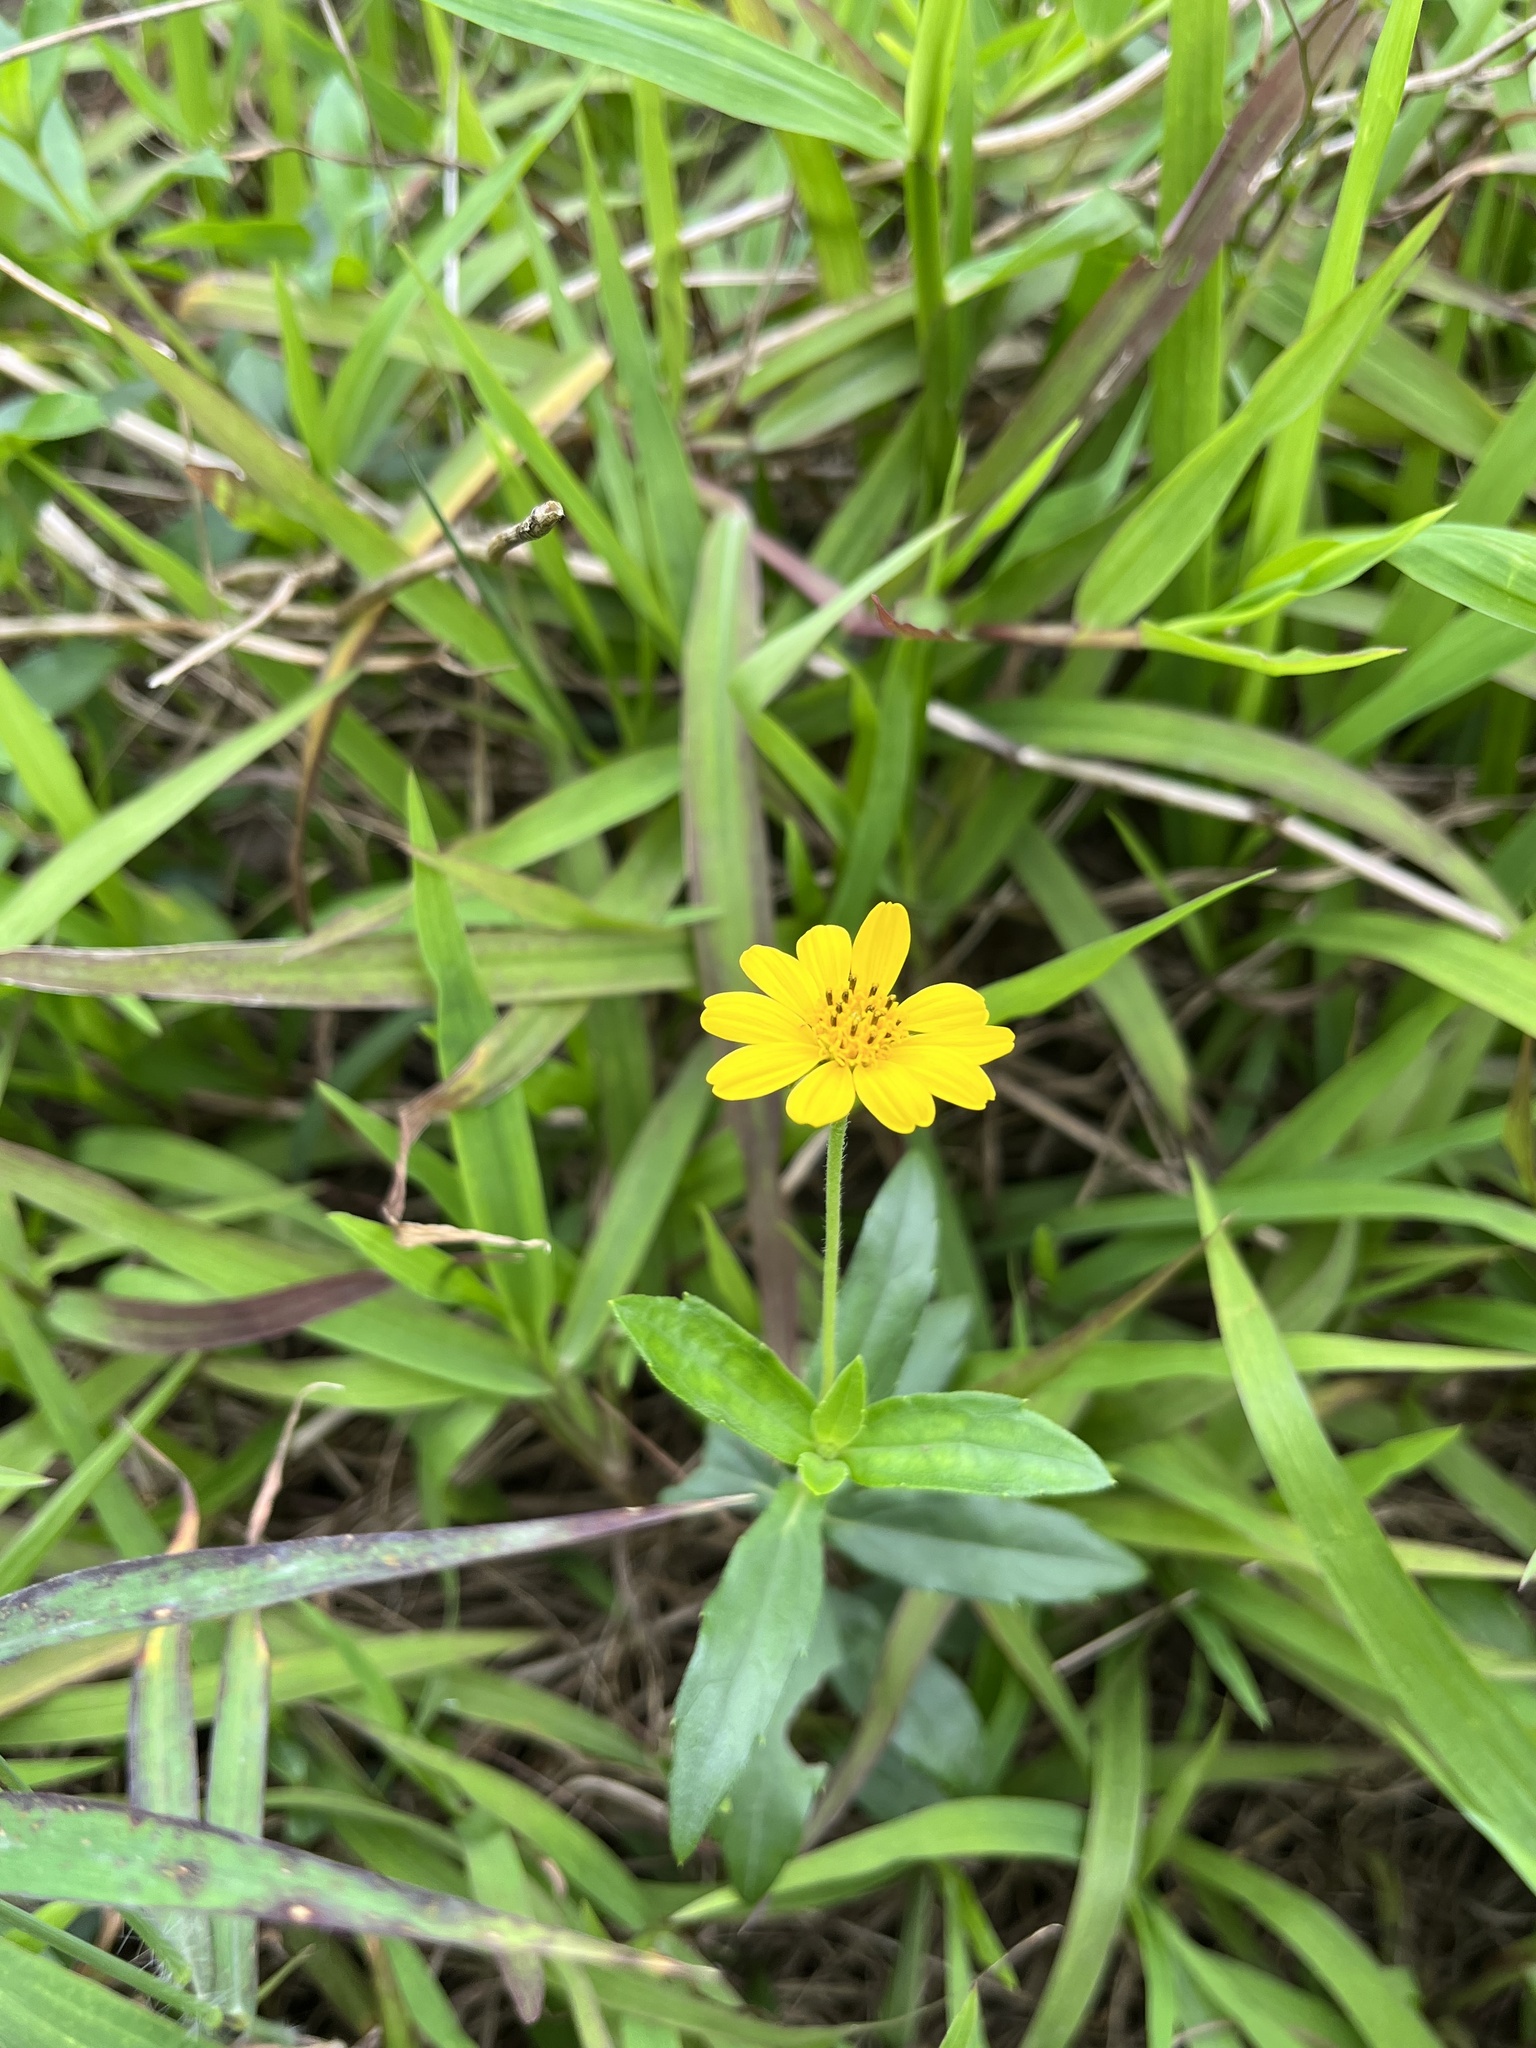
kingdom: Plantae
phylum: Tracheophyta
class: Magnoliopsida
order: Asterales
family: Asteraceae
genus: Sphagneticola
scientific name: Sphagneticola trilobata
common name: Bay biscayne creeping-oxeye
